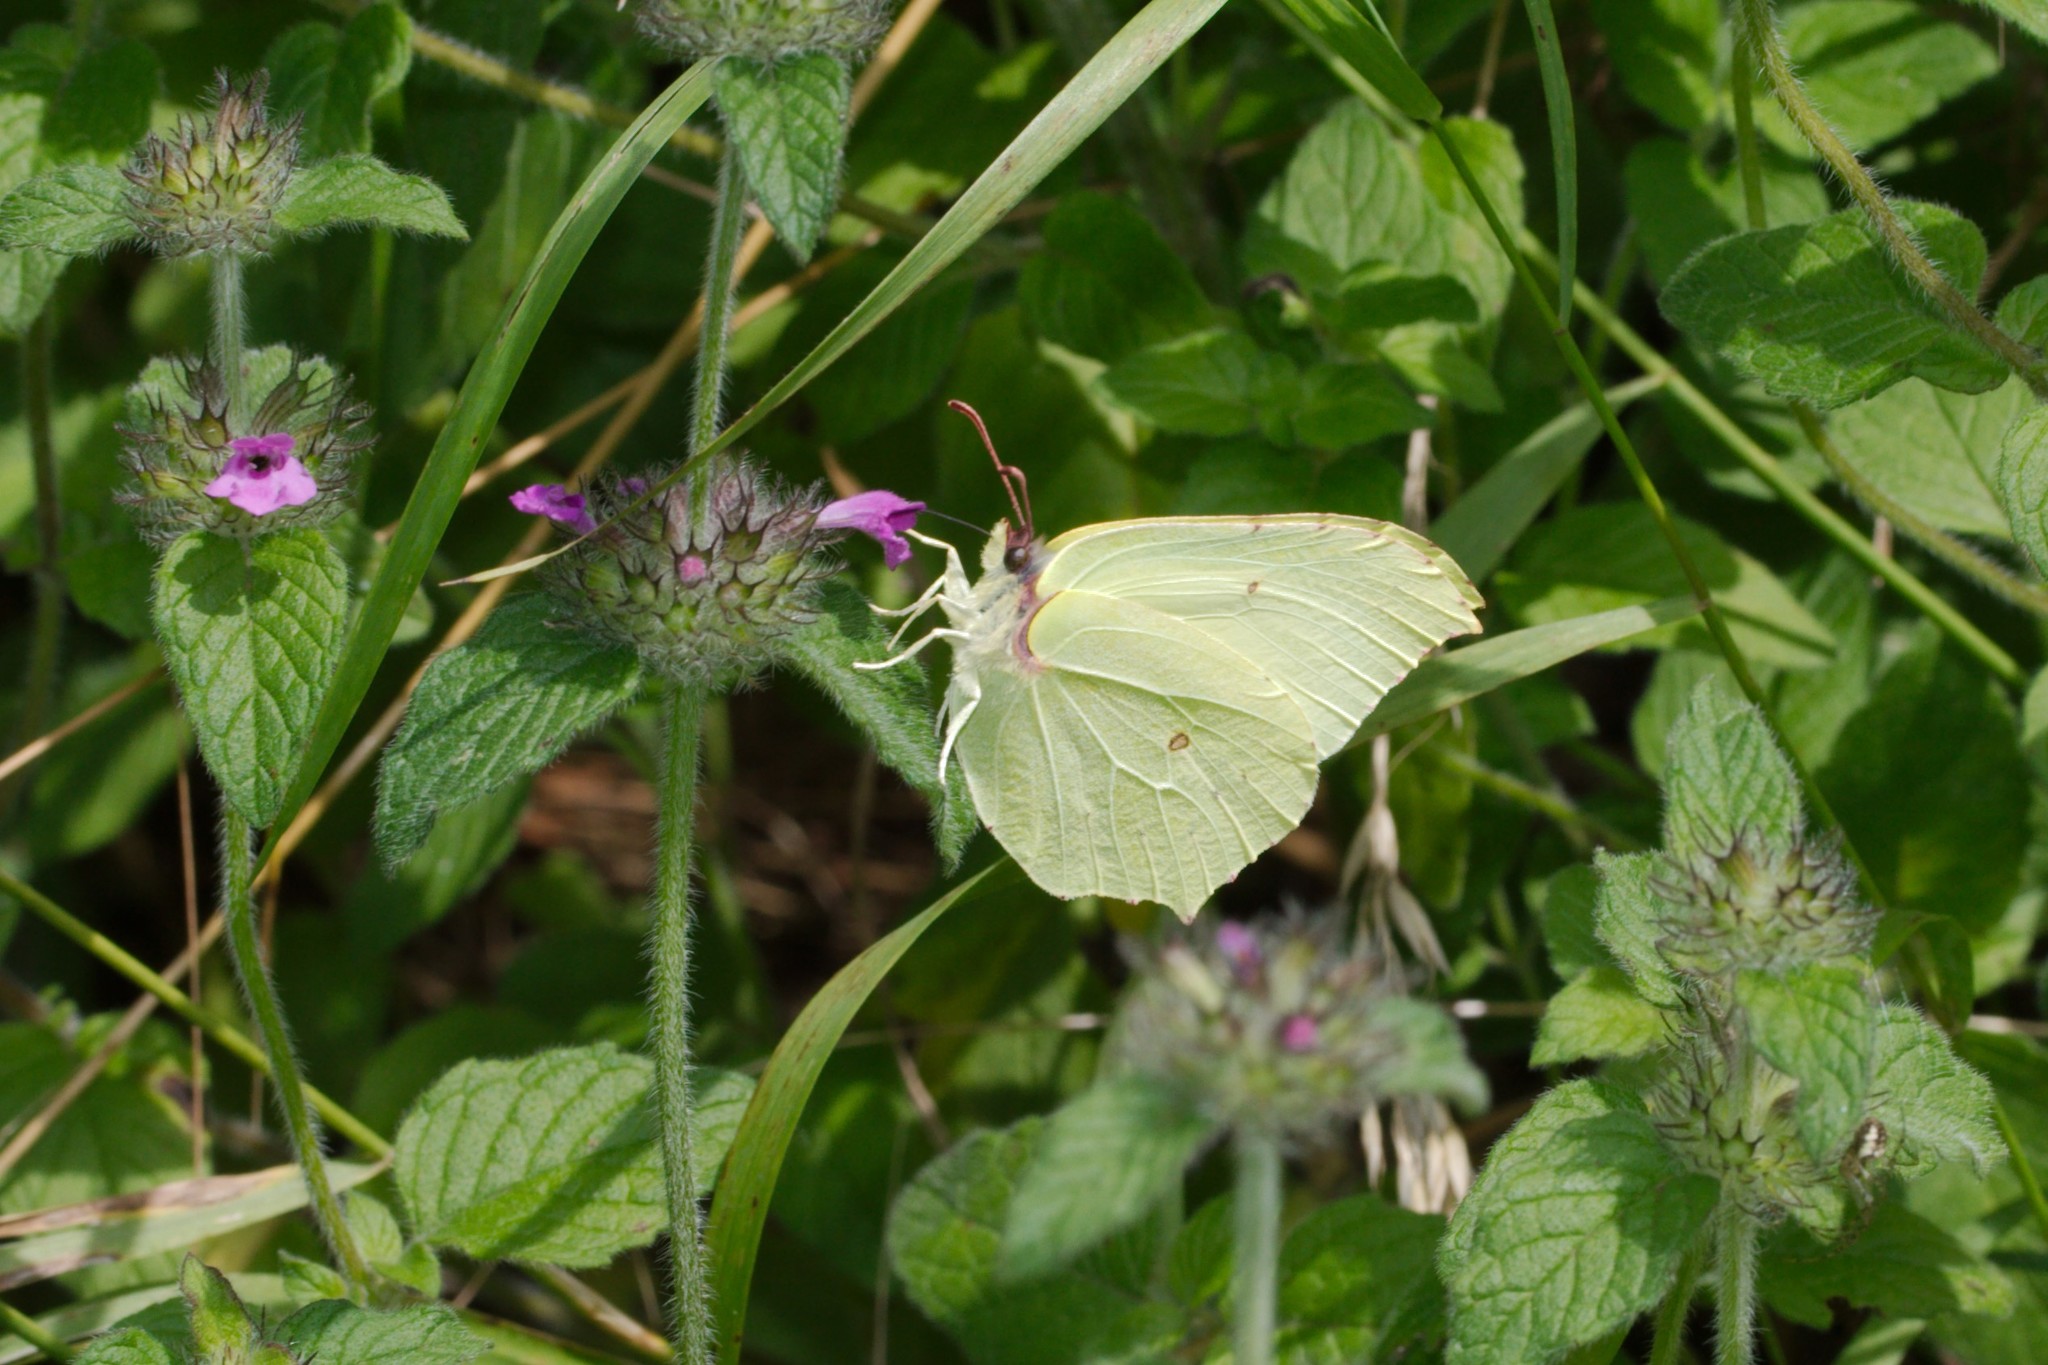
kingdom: Animalia
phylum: Arthropoda
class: Insecta
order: Lepidoptera
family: Pieridae
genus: Gonepteryx
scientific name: Gonepteryx rhamni
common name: Brimstone
